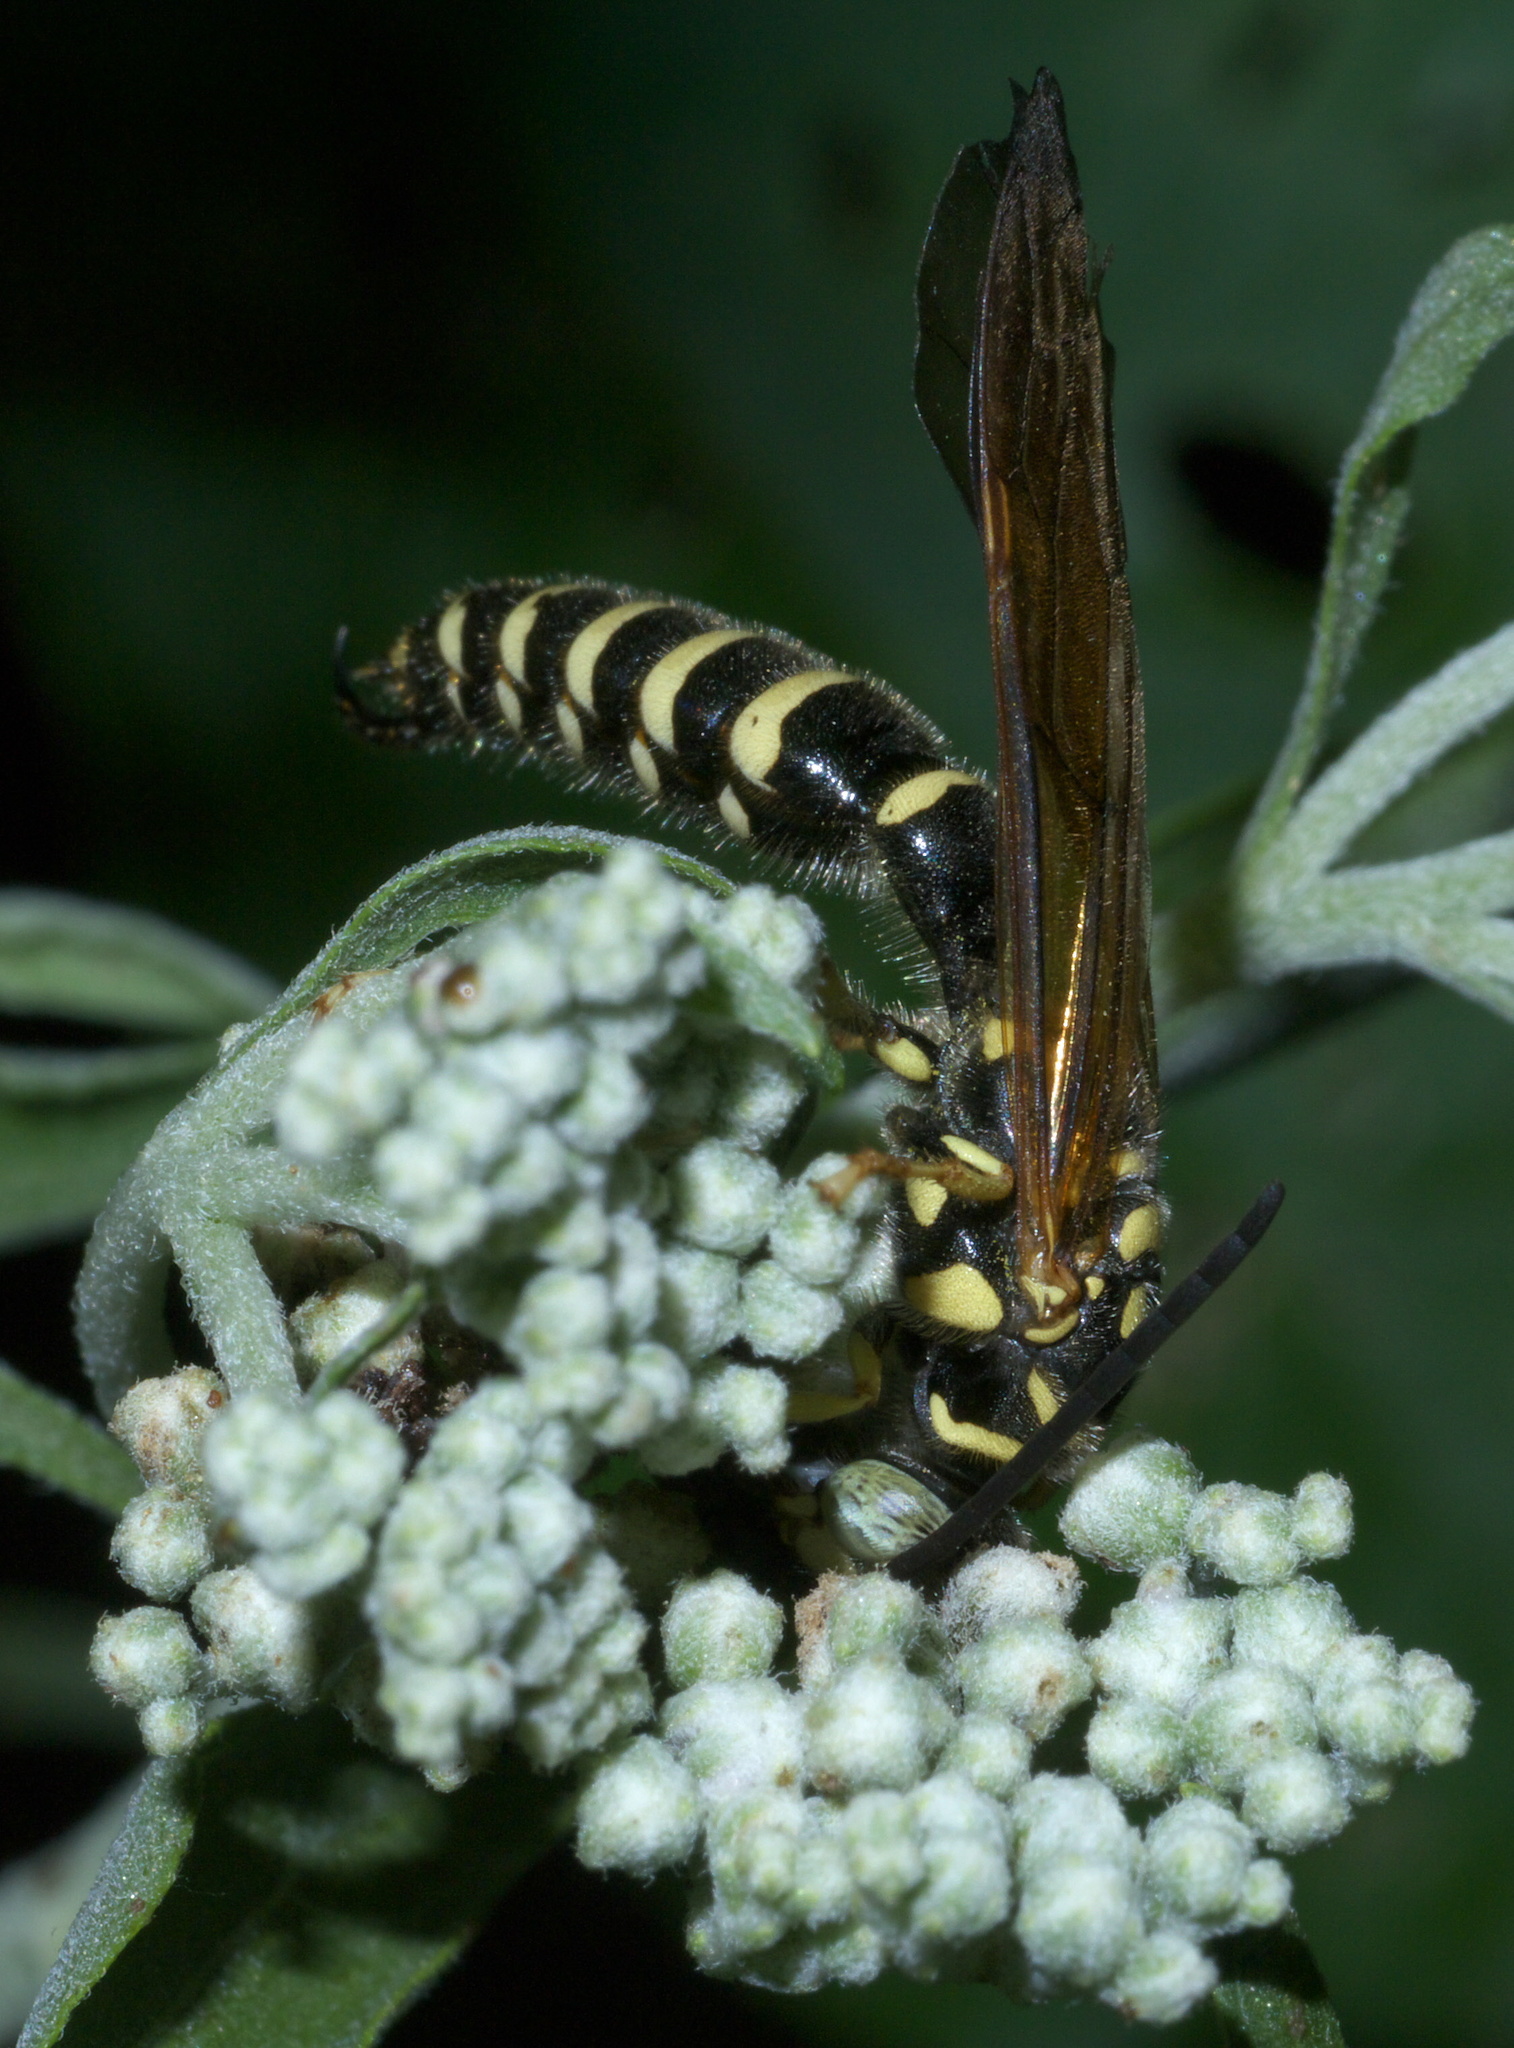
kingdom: Animalia
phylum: Arthropoda
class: Insecta
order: Hymenoptera
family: Tiphiidae
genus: Myzinum
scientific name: Myzinum quinquecinctum
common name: Five-banded thynnid wasp
